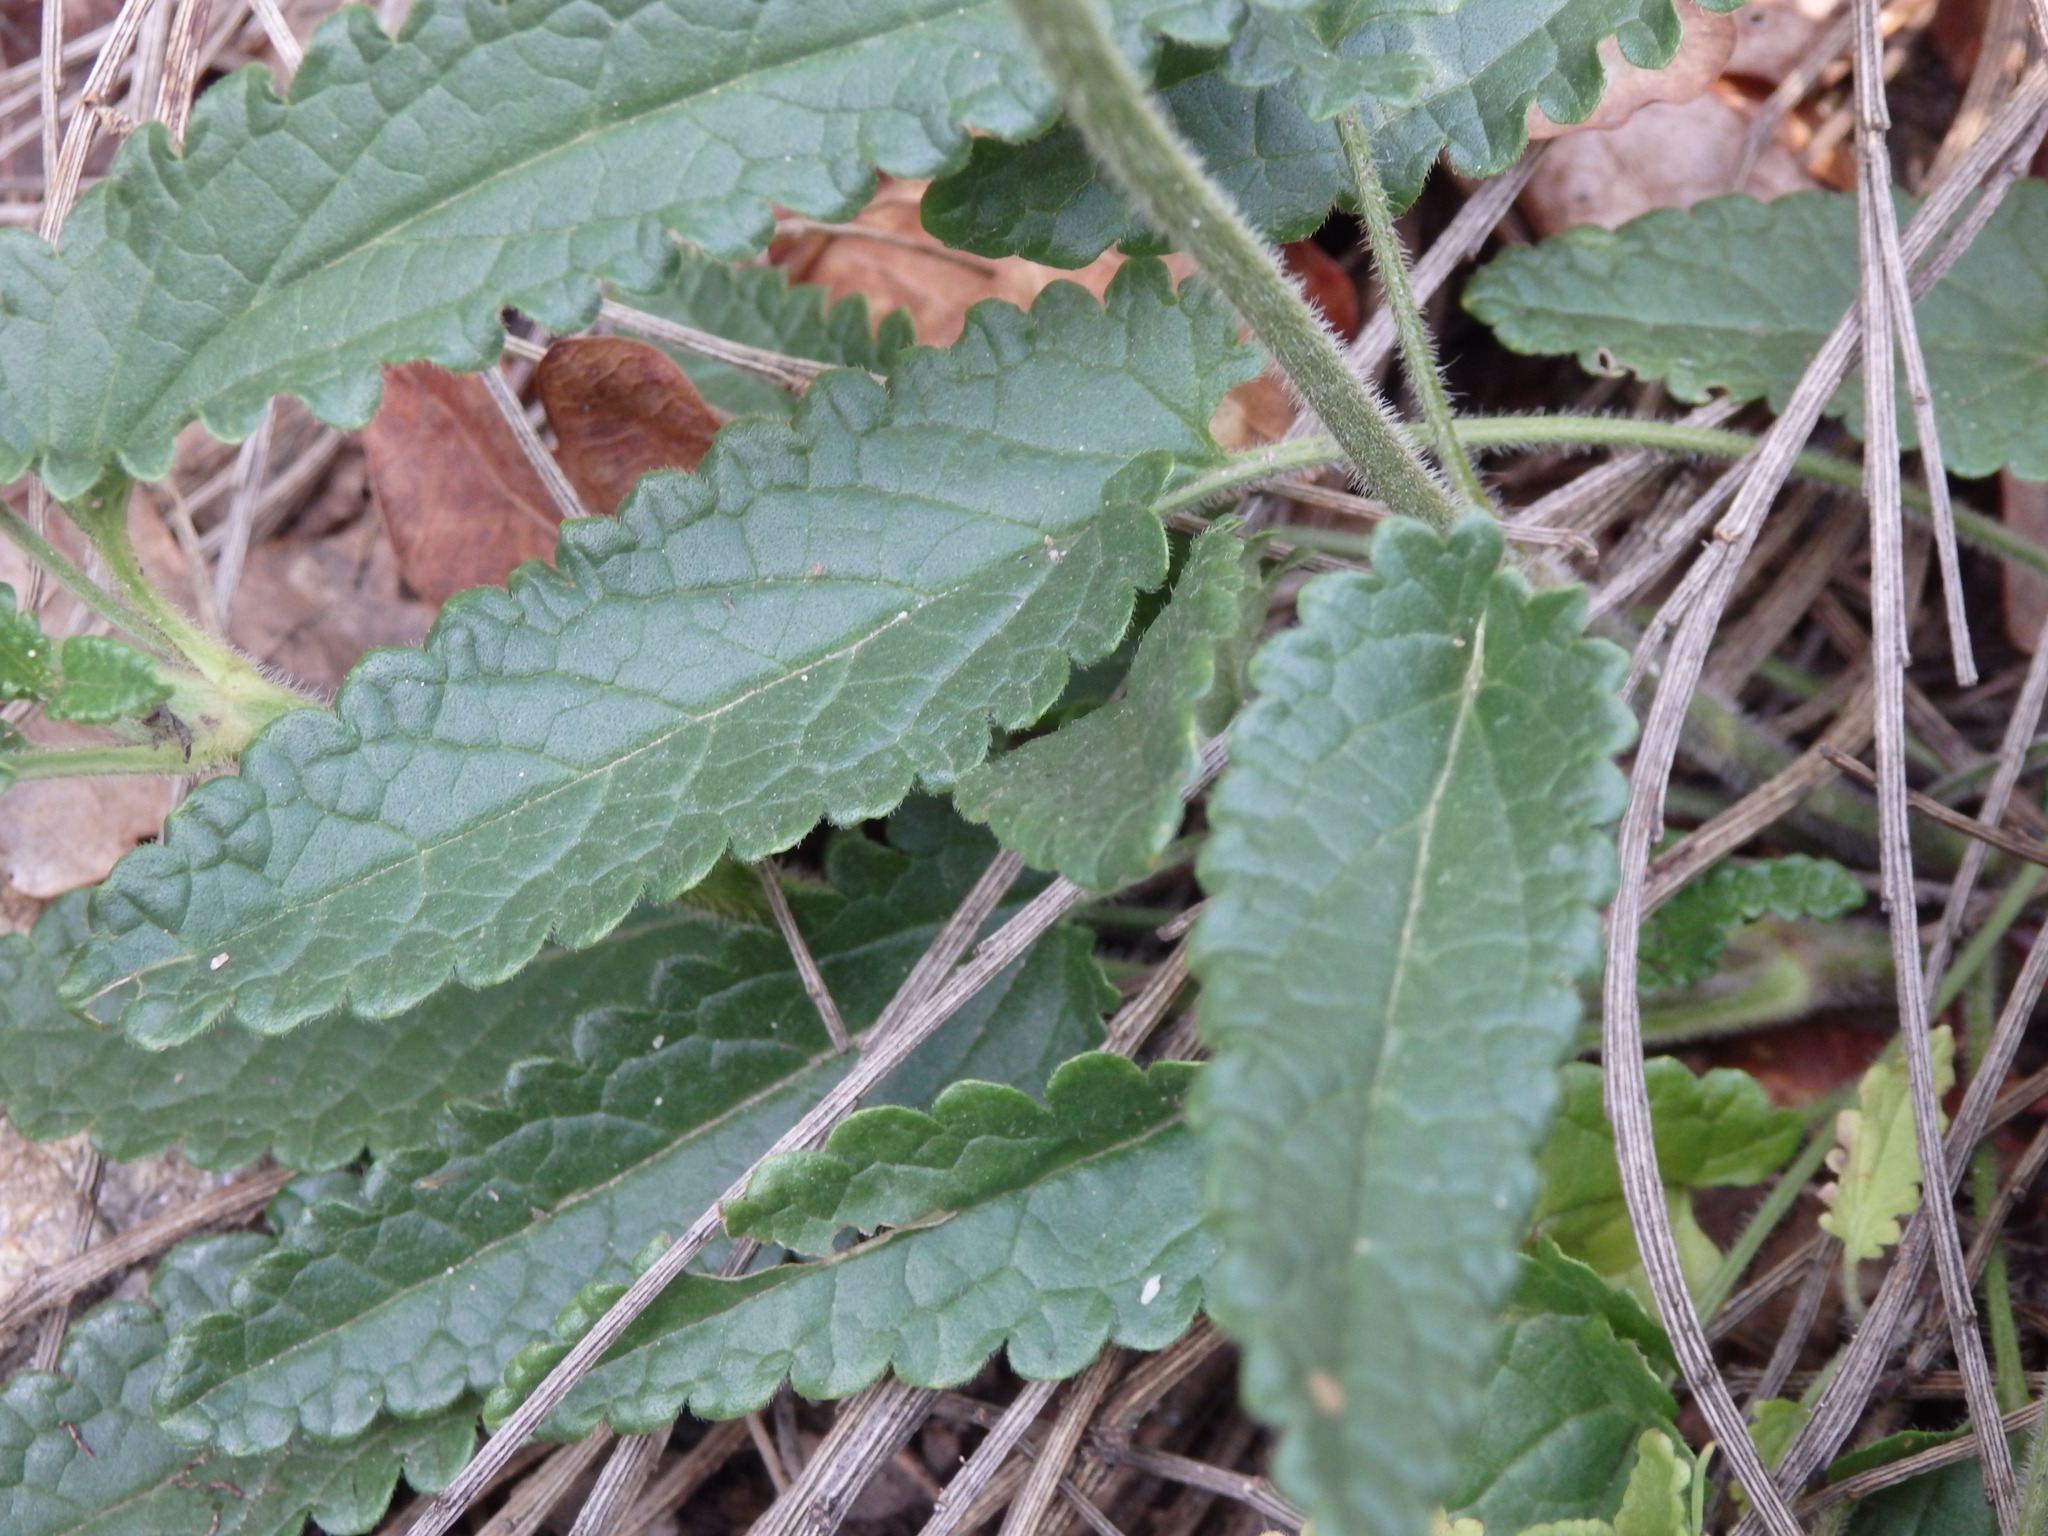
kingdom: Plantae
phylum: Tracheophyta
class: Magnoliopsida
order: Lamiales
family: Lamiaceae
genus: Betonica
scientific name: Betonica officinalis
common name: Bishop's-wort
